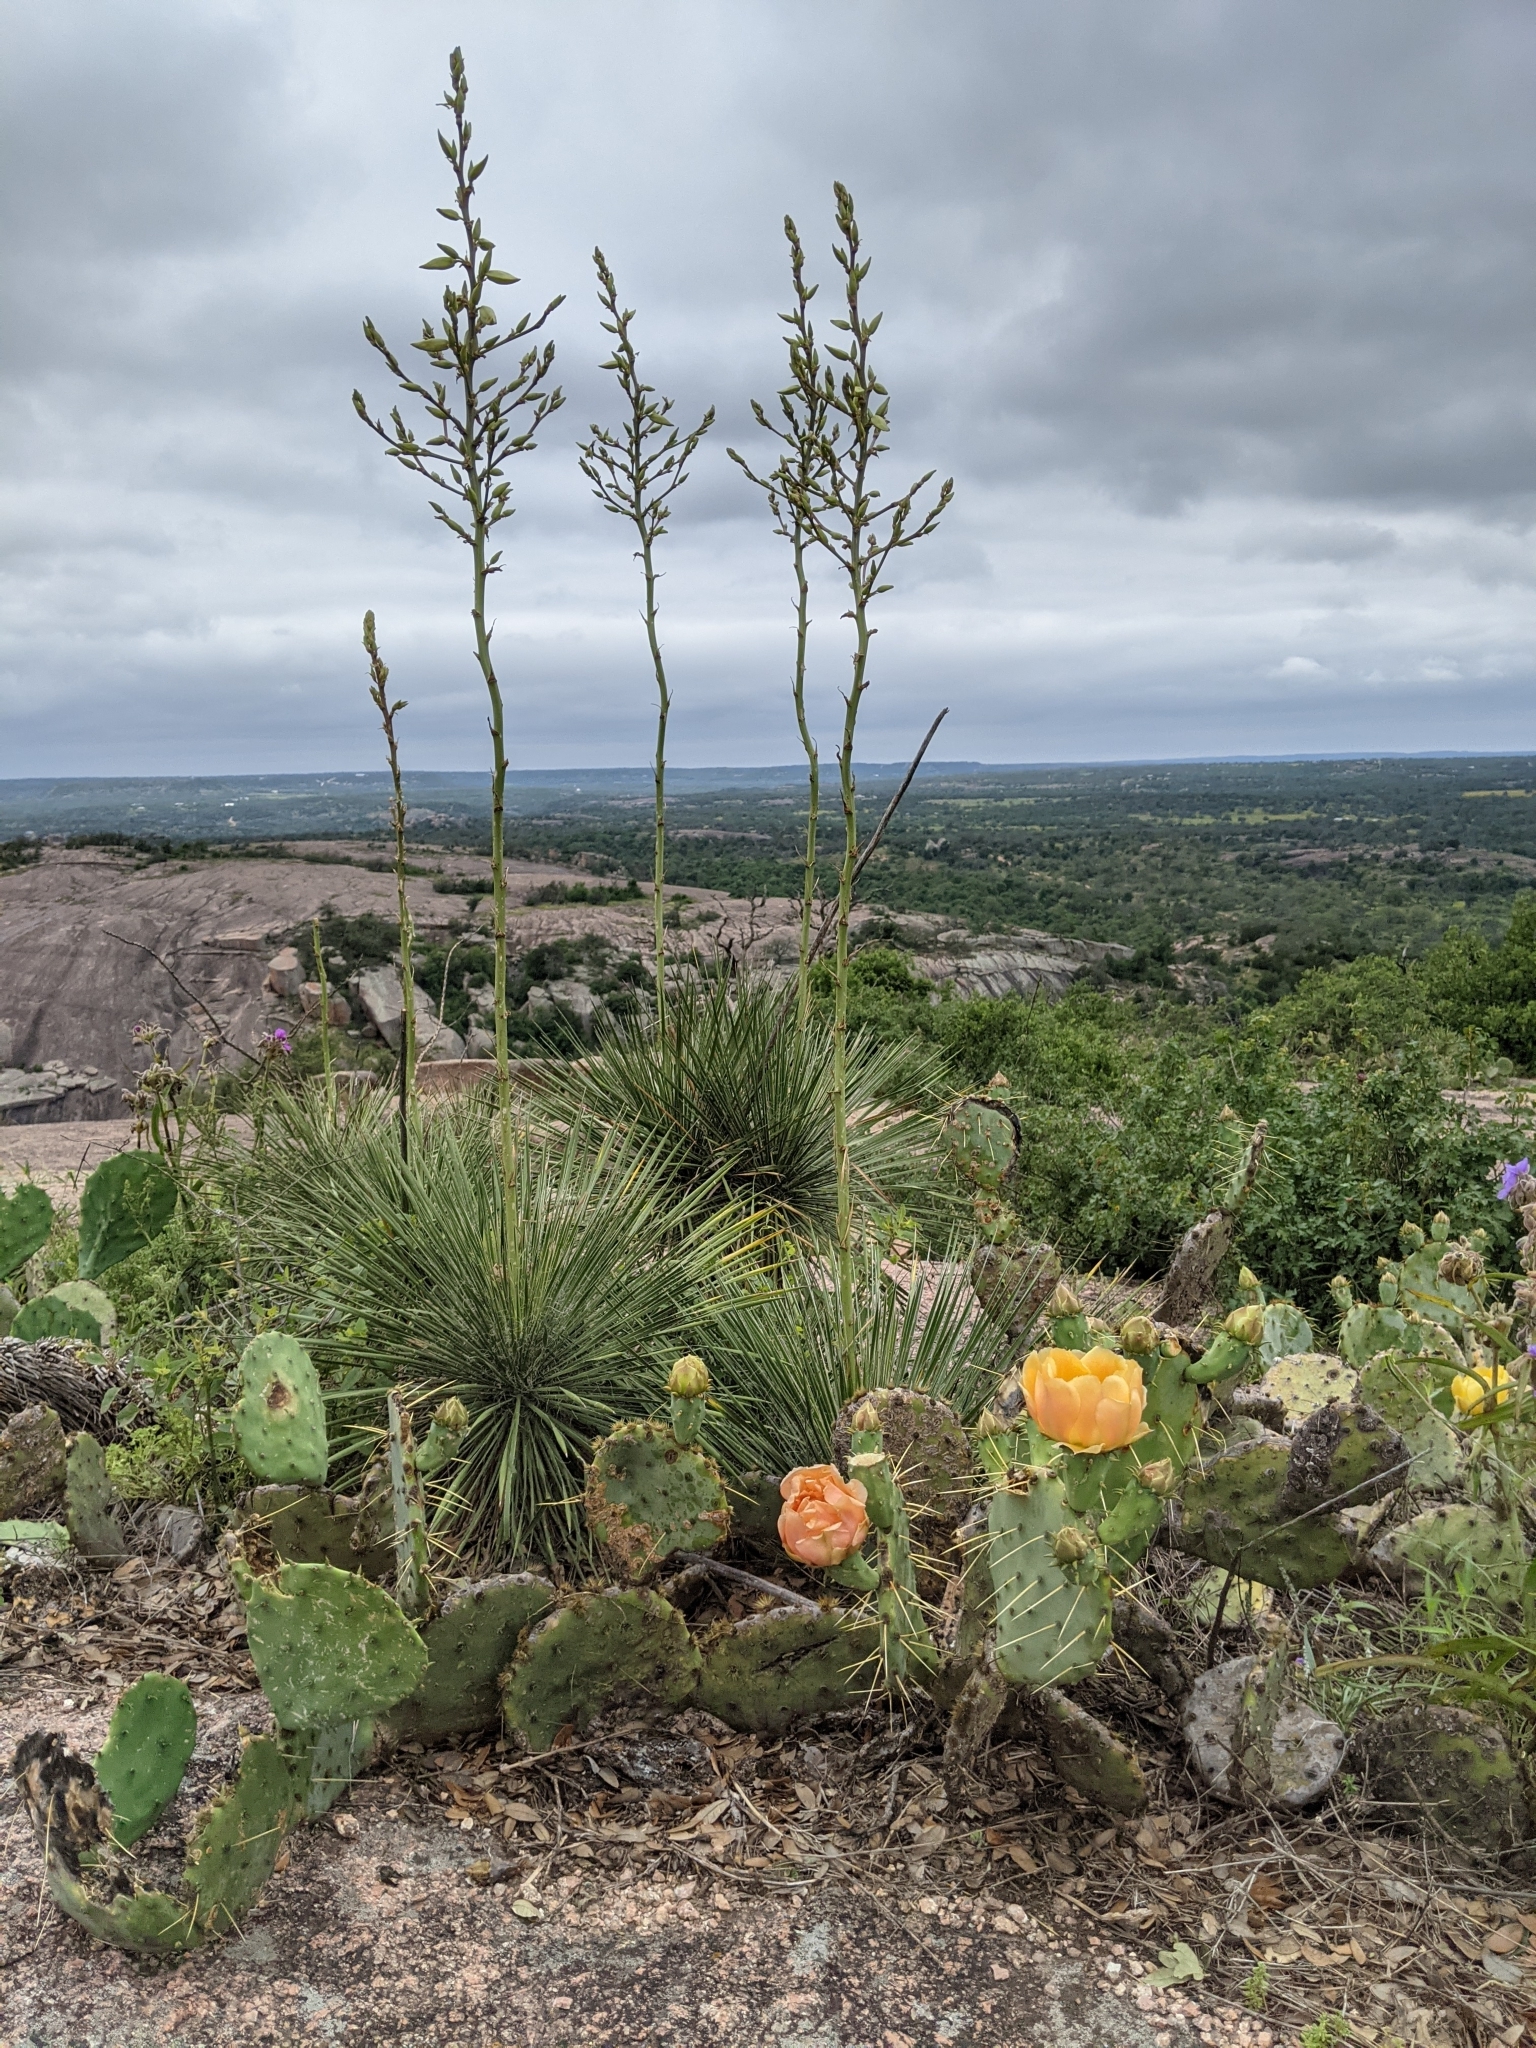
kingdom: Plantae
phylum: Tracheophyta
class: Liliopsida
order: Asparagales
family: Asparagaceae
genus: Yucca
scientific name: Yucca constricta
